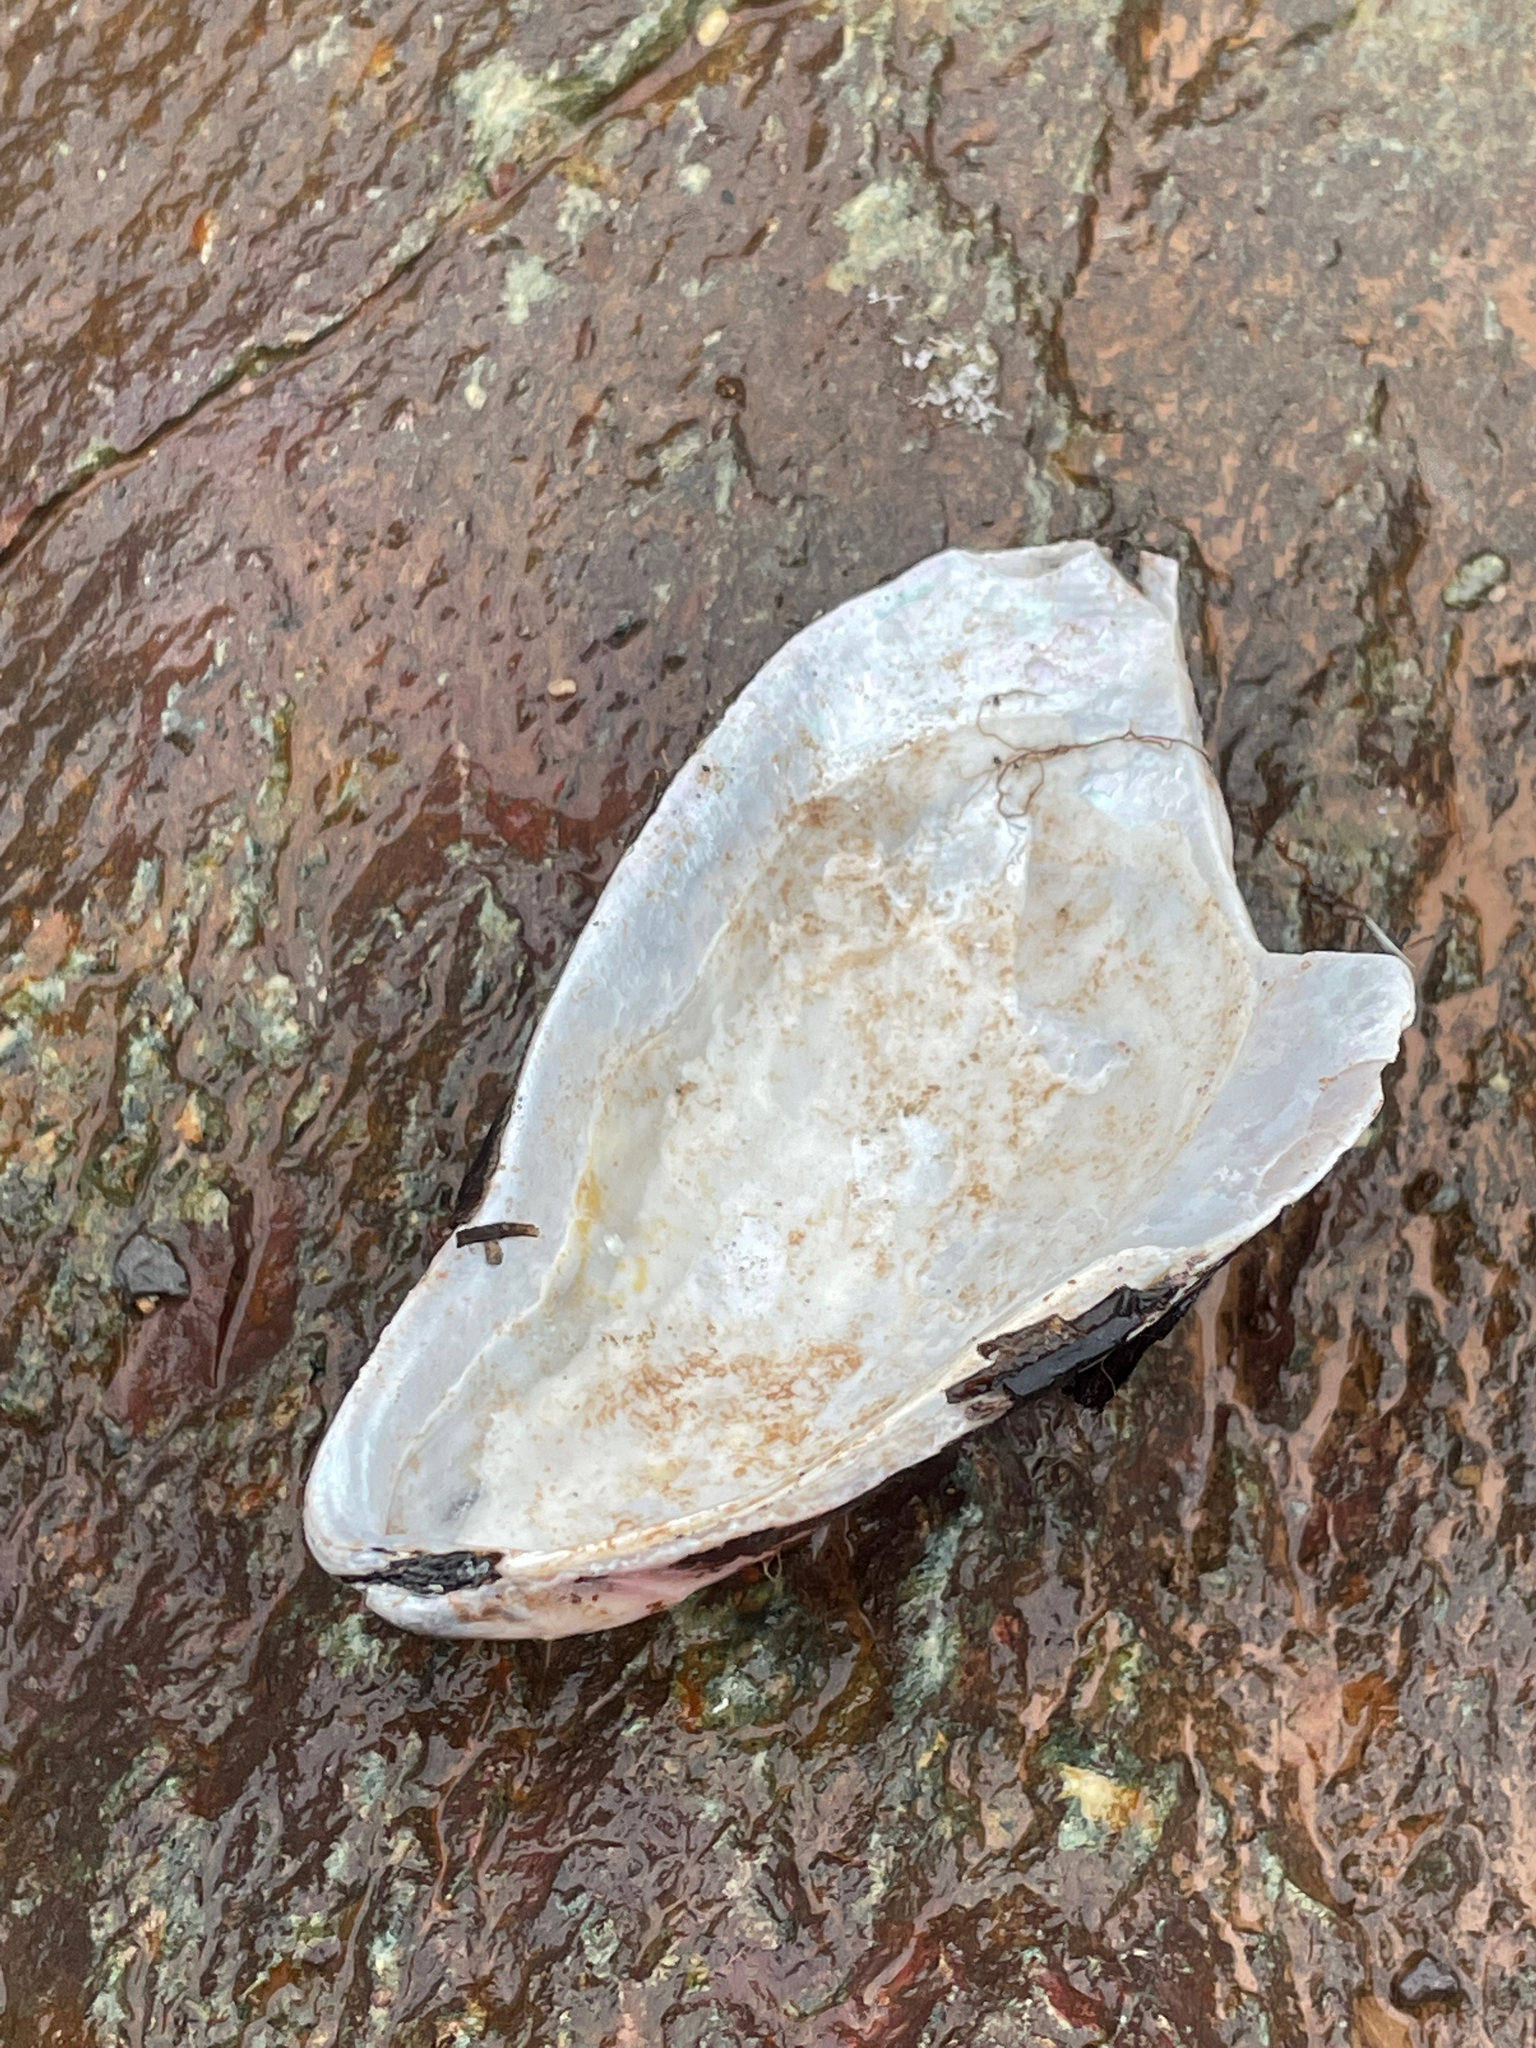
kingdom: Animalia
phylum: Mollusca
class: Bivalvia
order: Mytilida
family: Mytilidae
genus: Modiolus
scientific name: Modiolus modiolus
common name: Horse-mussel
